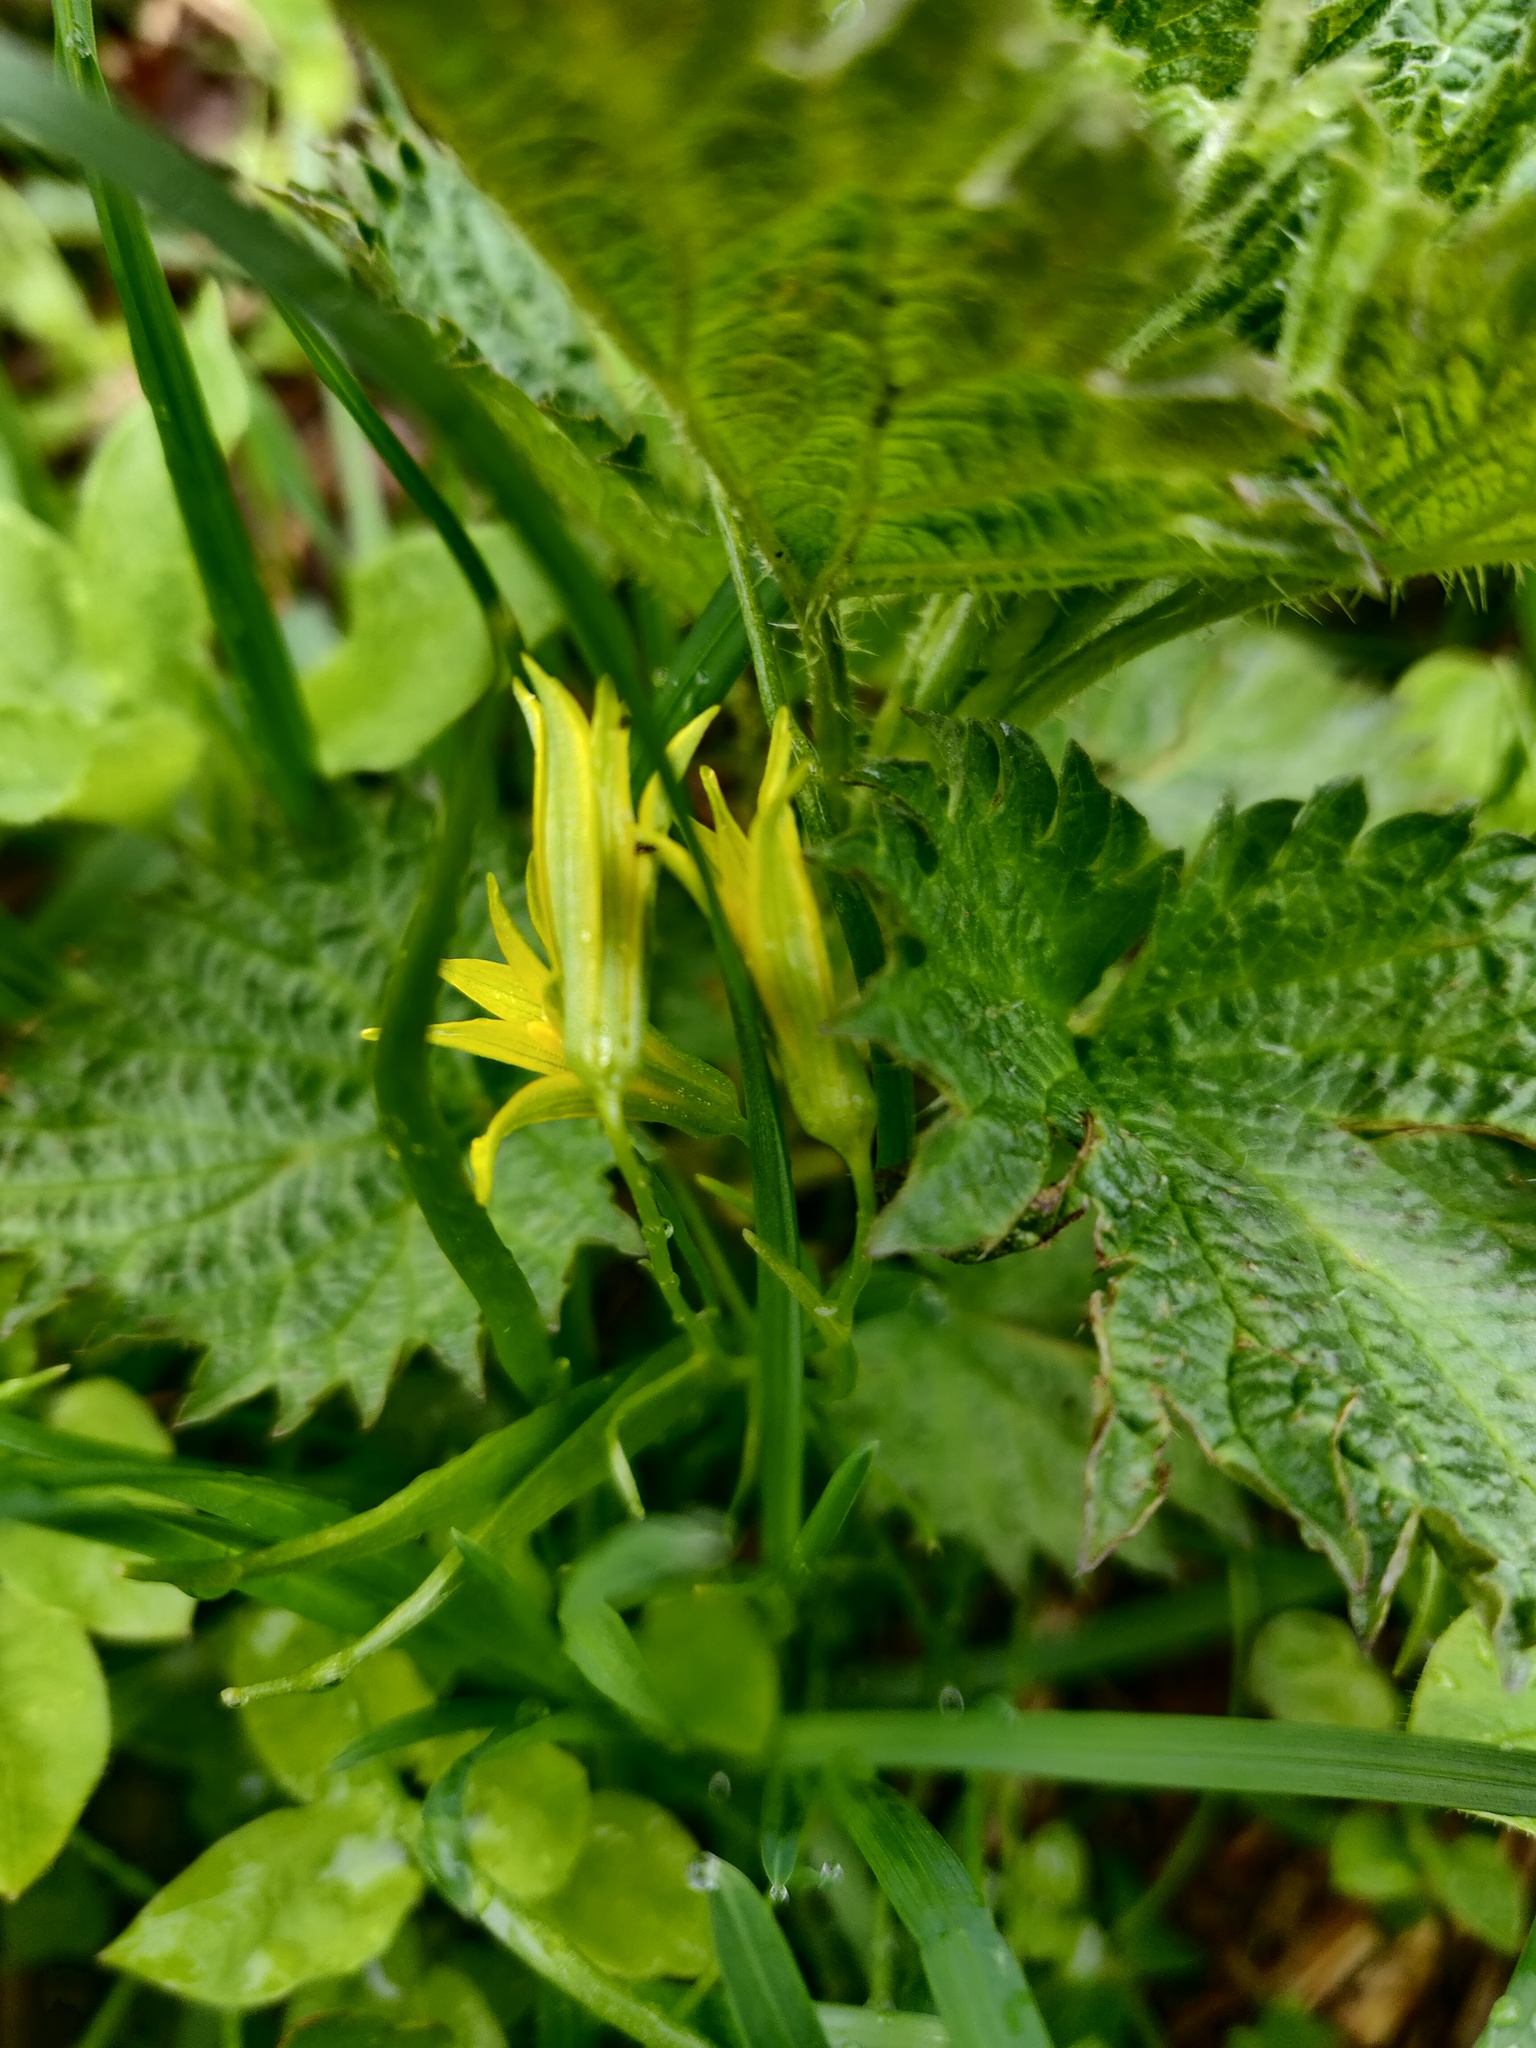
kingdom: Plantae
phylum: Tracheophyta
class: Liliopsida
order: Liliales
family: Liliaceae
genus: Gagea
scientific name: Gagea minima
